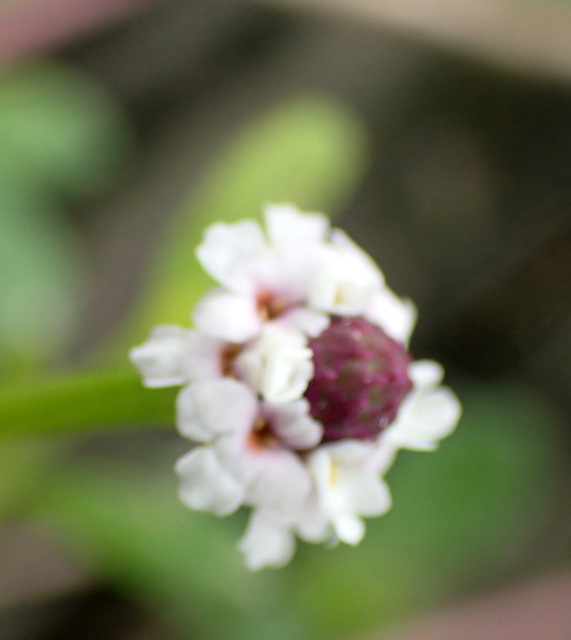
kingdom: Plantae
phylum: Tracheophyta
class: Magnoliopsida
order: Lamiales
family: Verbenaceae
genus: Phyla
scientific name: Phyla nodiflora
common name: Frogfruit
